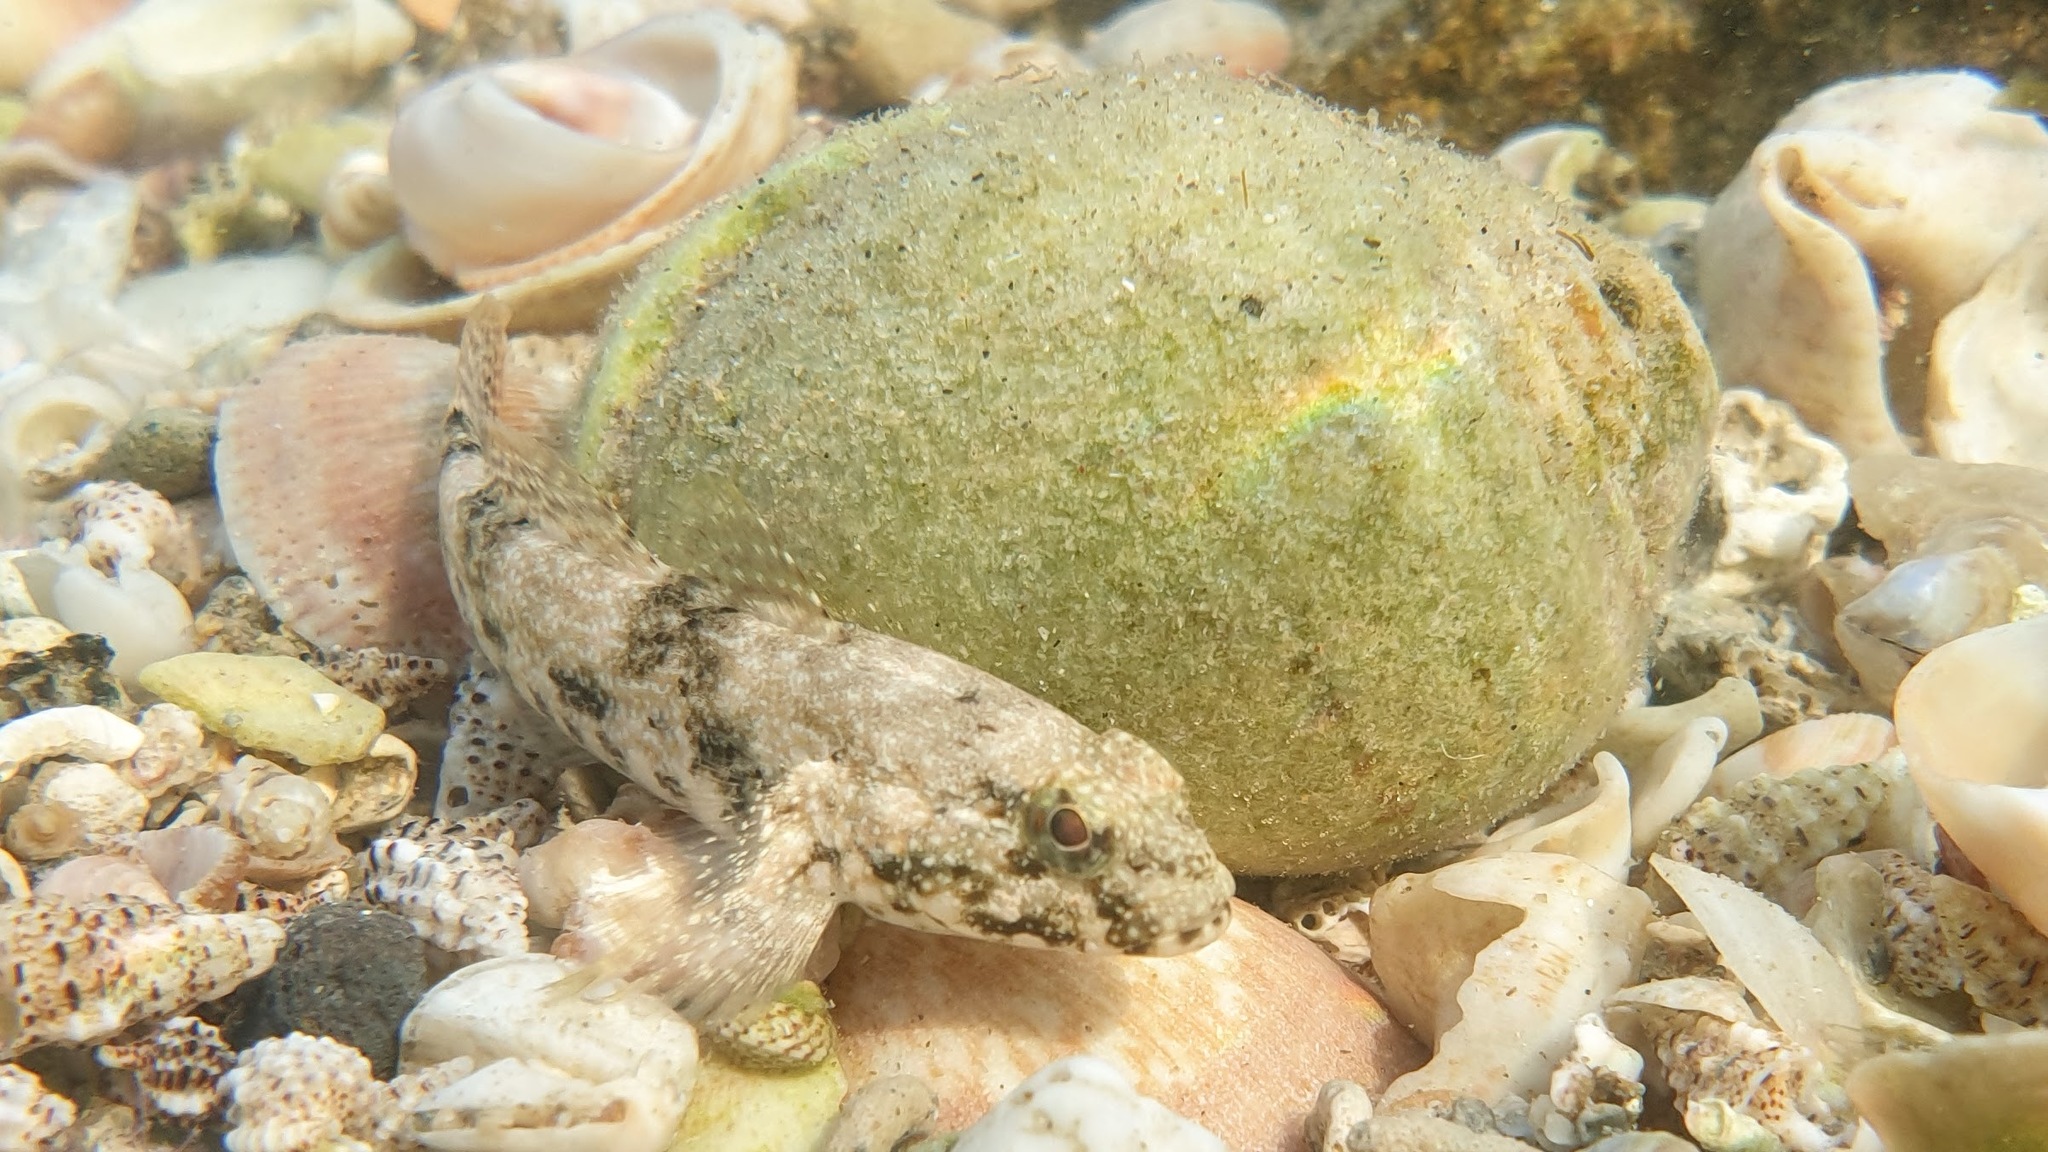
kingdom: Animalia
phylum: Chordata
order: Perciformes
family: Gobiidae
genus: Gobius
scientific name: Gobius cobitis
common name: Giant goby
